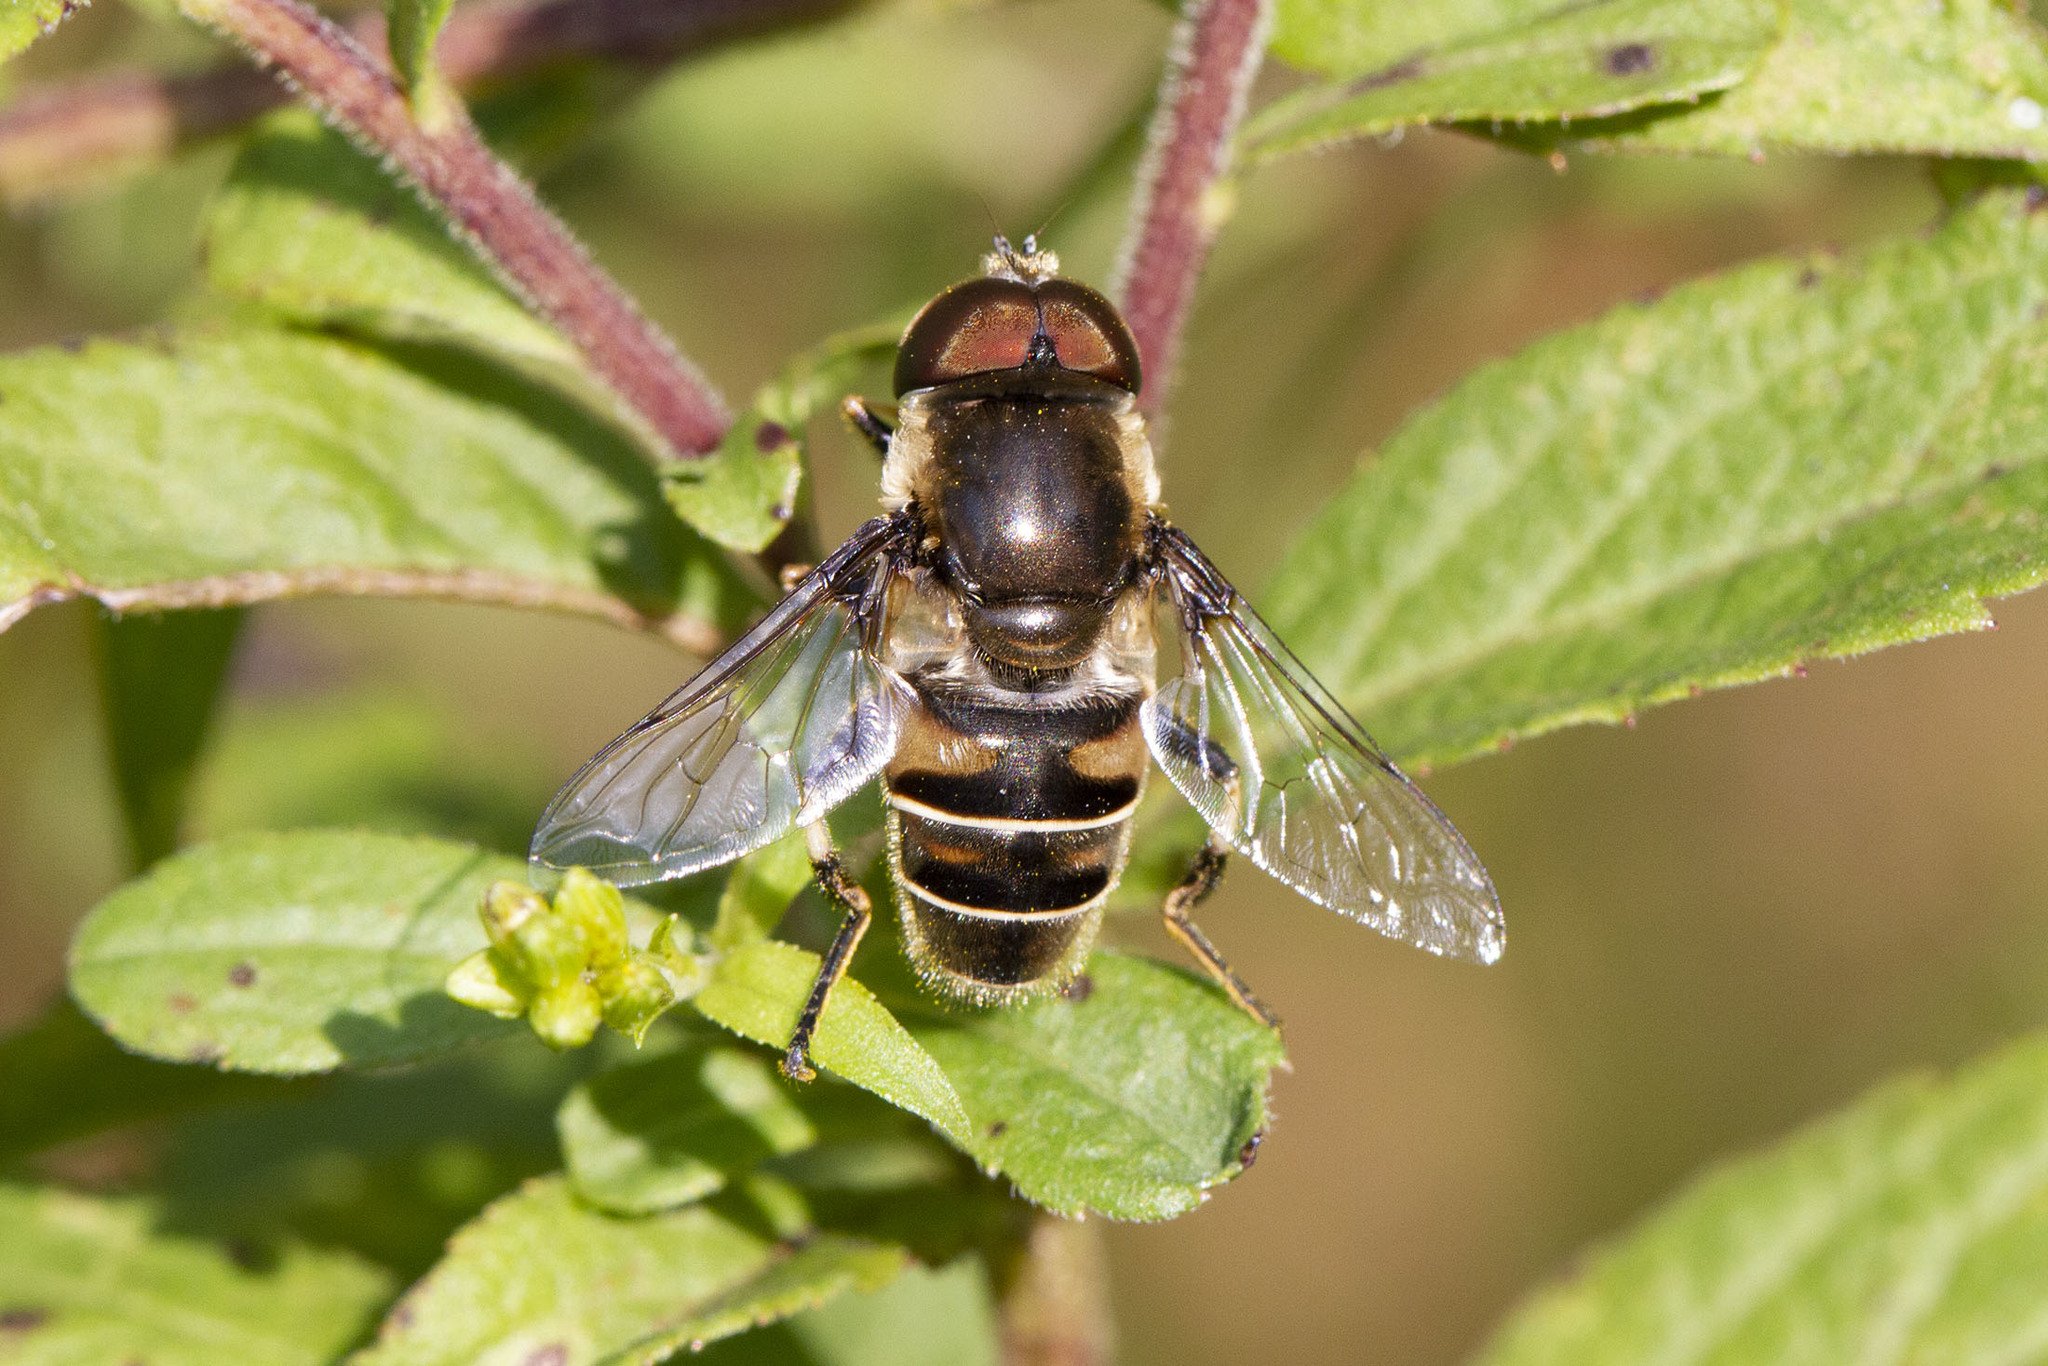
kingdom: Animalia
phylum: Arthropoda
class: Insecta
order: Diptera
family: Syrphidae
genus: Eristalis
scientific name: Eristalis dimidiata
